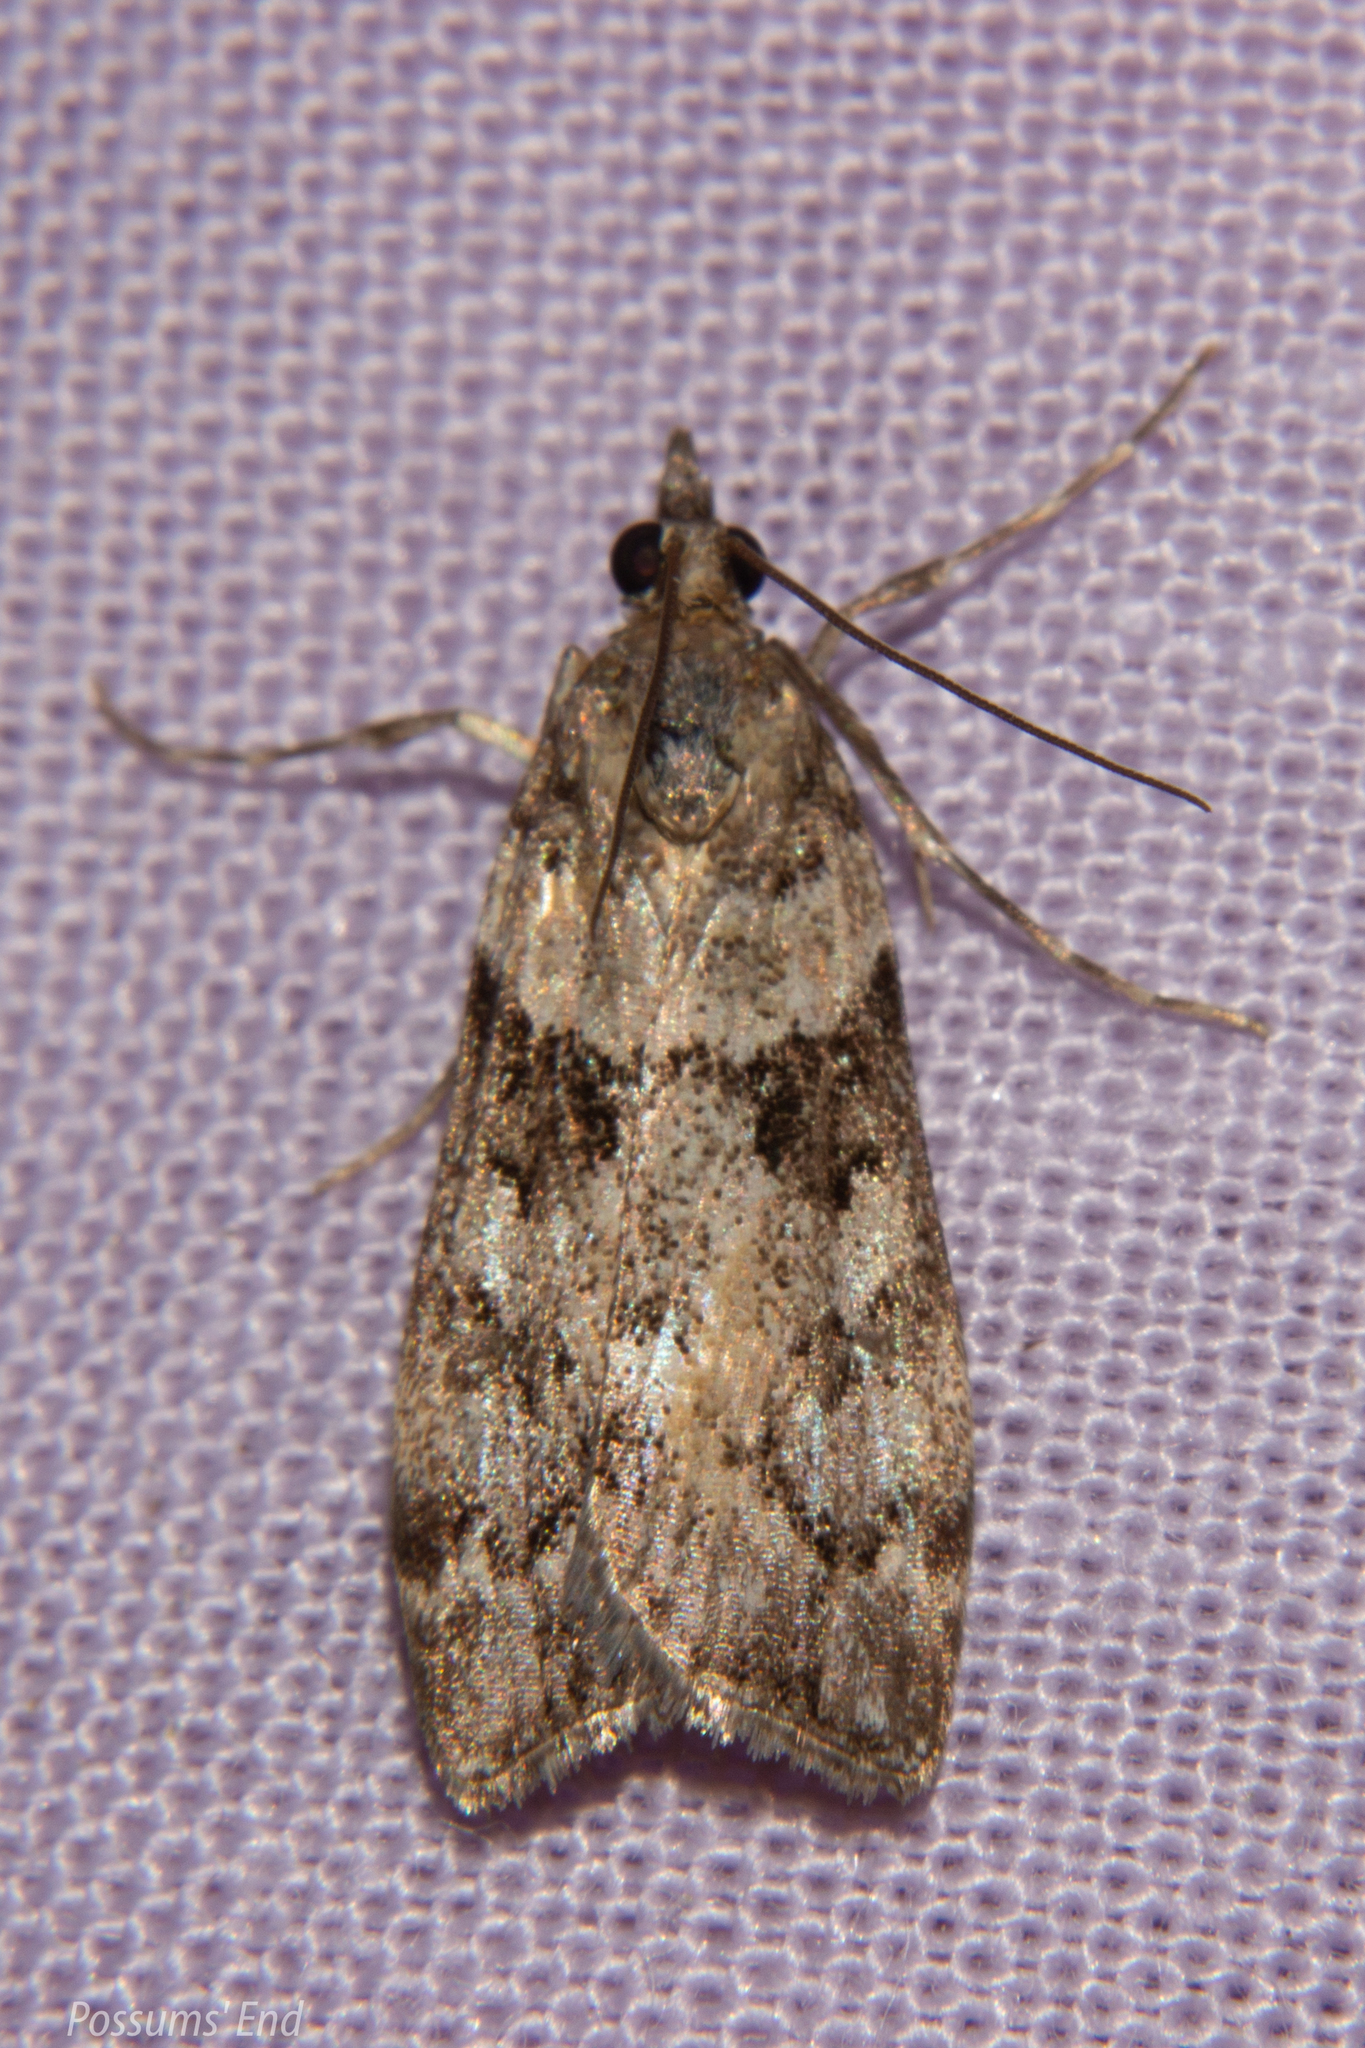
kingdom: Animalia
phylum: Arthropoda
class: Insecta
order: Lepidoptera
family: Crambidae
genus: Eudonia
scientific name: Eudonia submarginalis
